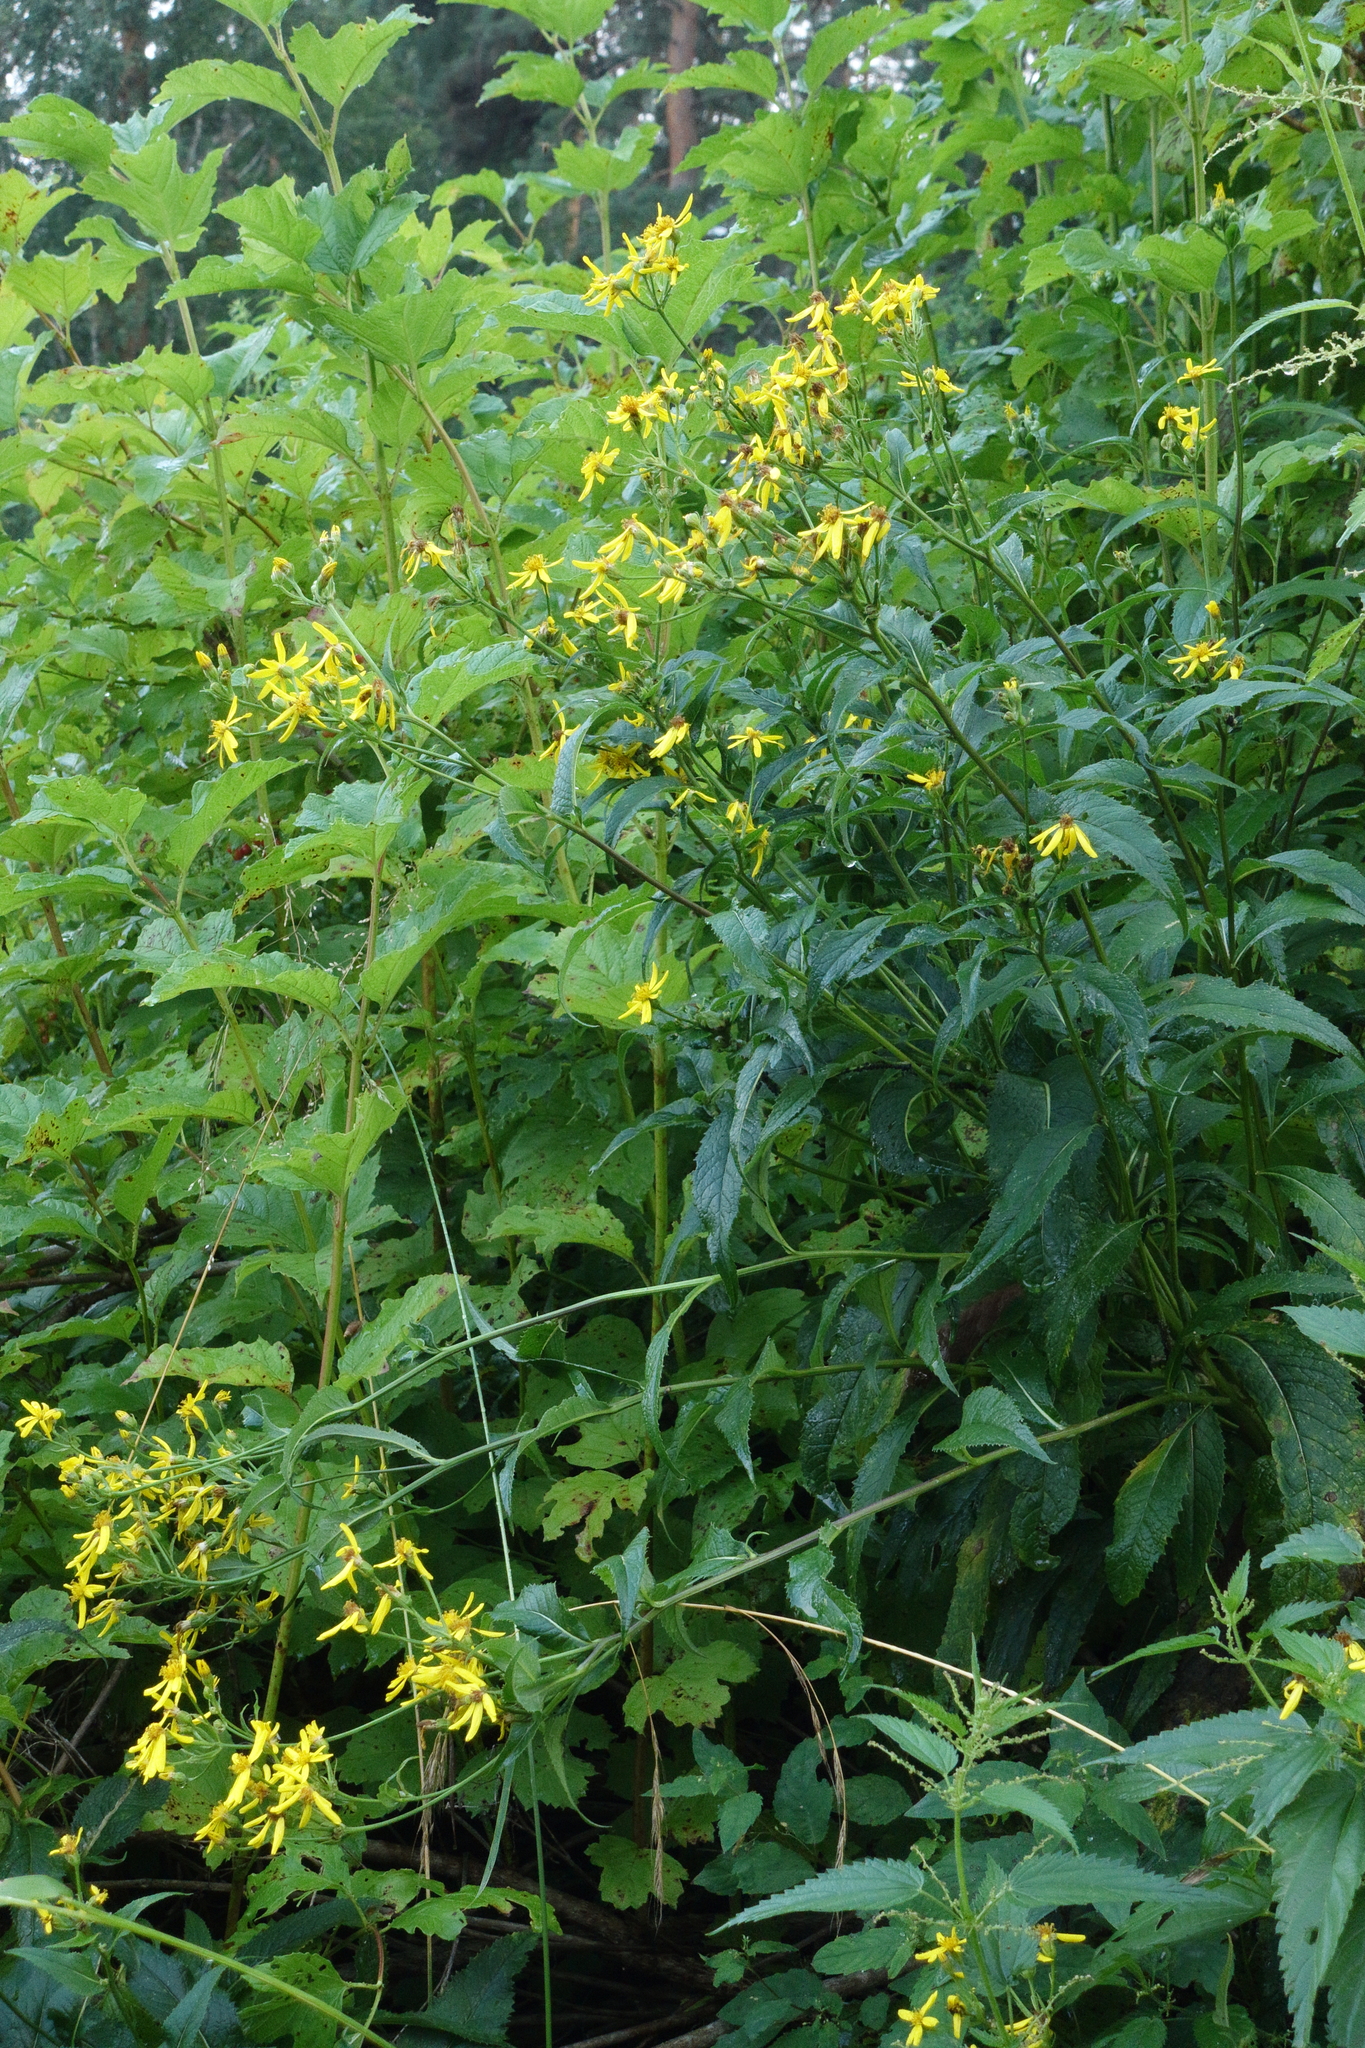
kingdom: Plantae
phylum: Tracheophyta
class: Magnoliopsida
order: Asterales
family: Asteraceae
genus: Senecio
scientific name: Senecio nemorensis
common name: Alpine ragwort
